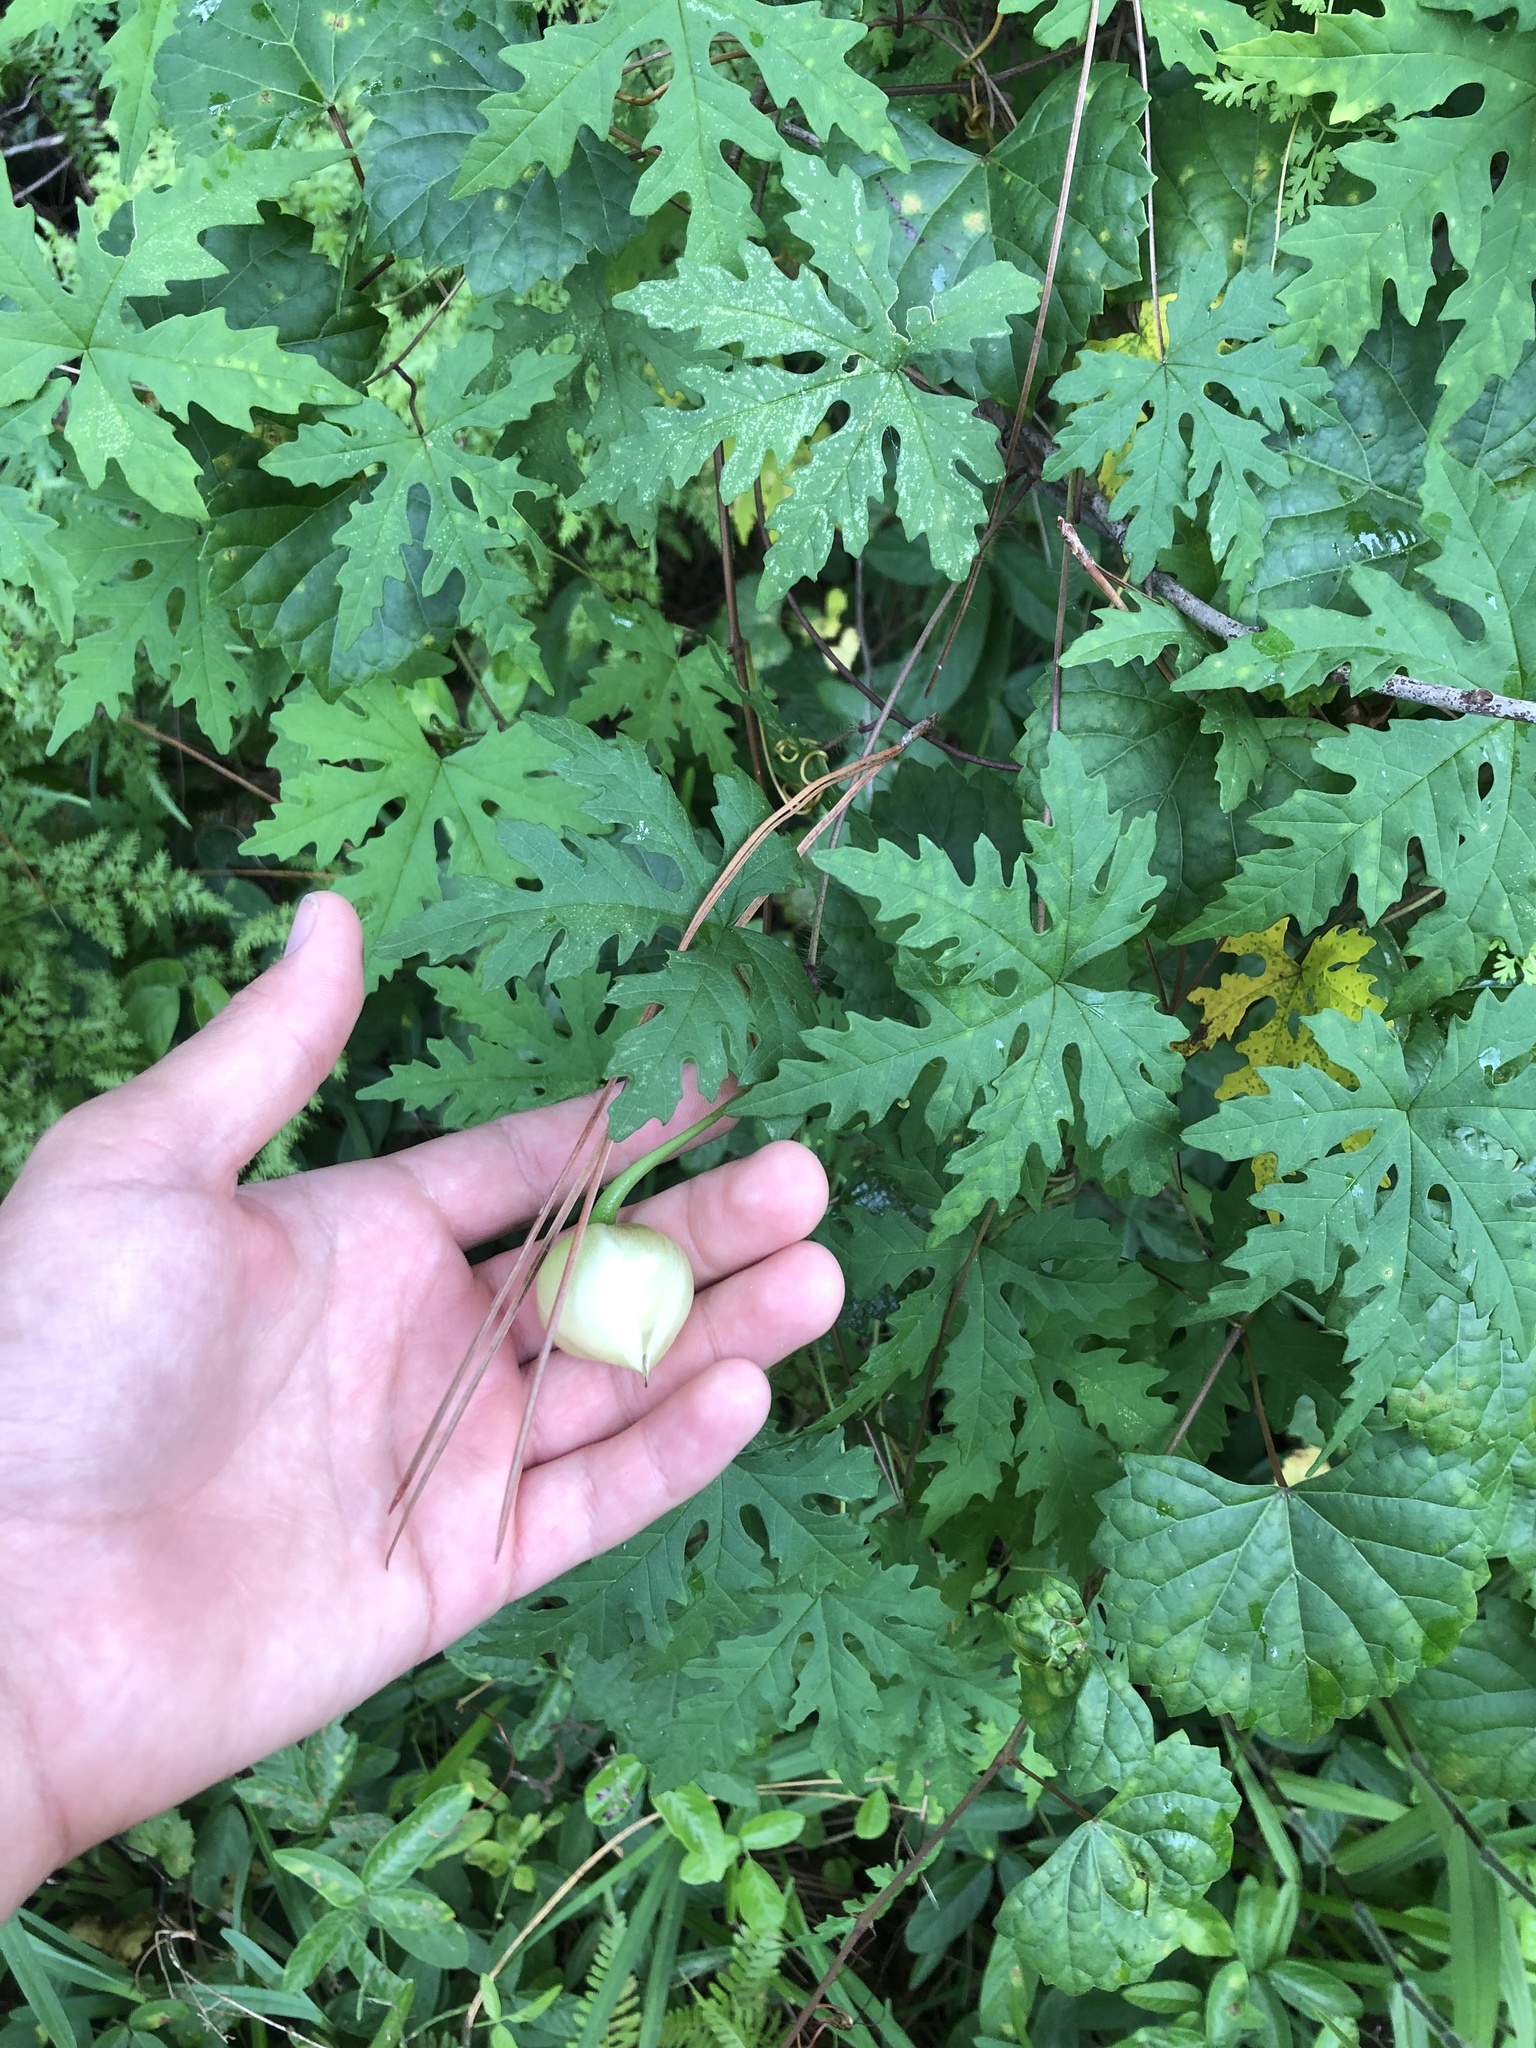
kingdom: Plantae
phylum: Tracheophyta
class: Magnoliopsida
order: Solanales
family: Convolvulaceae
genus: Distimake
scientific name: Distimake dissectus
